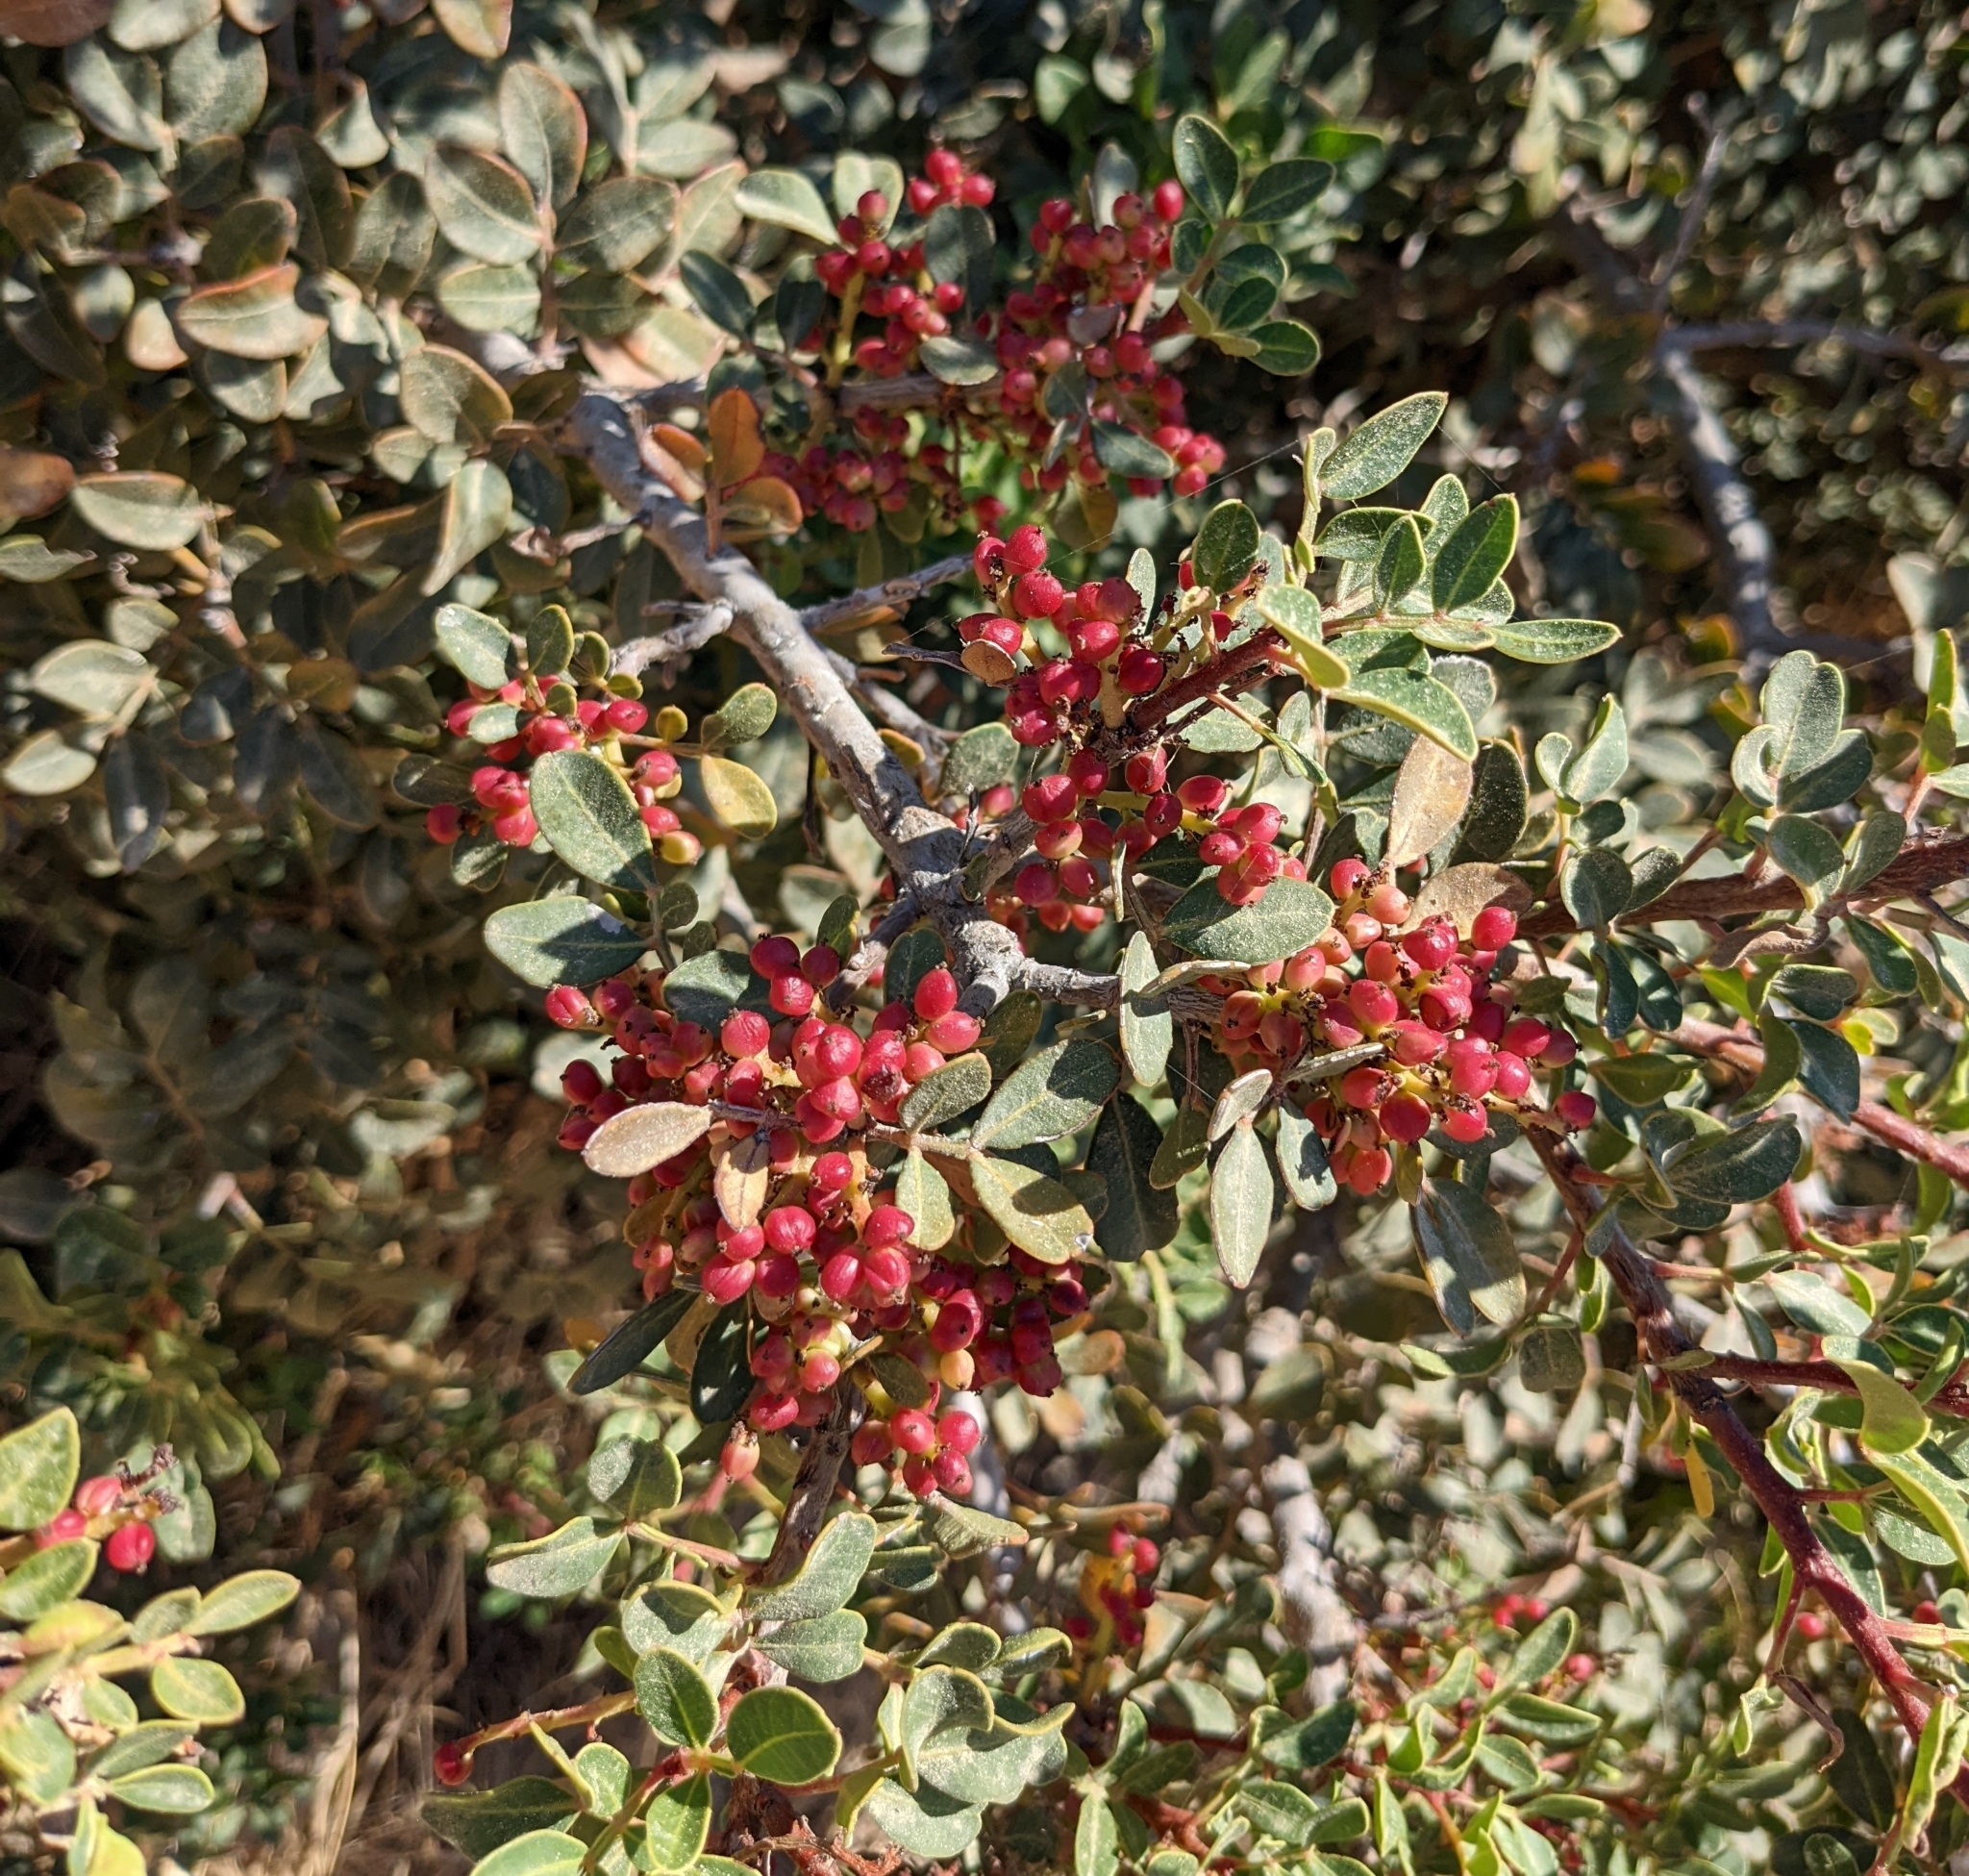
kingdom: Plantae
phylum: Tracheophyta
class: Magnoliopsida
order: Sapindales
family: Anacardiaceae
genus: Pistacia
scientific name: Pistacia lentiscus
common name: Lentisk
